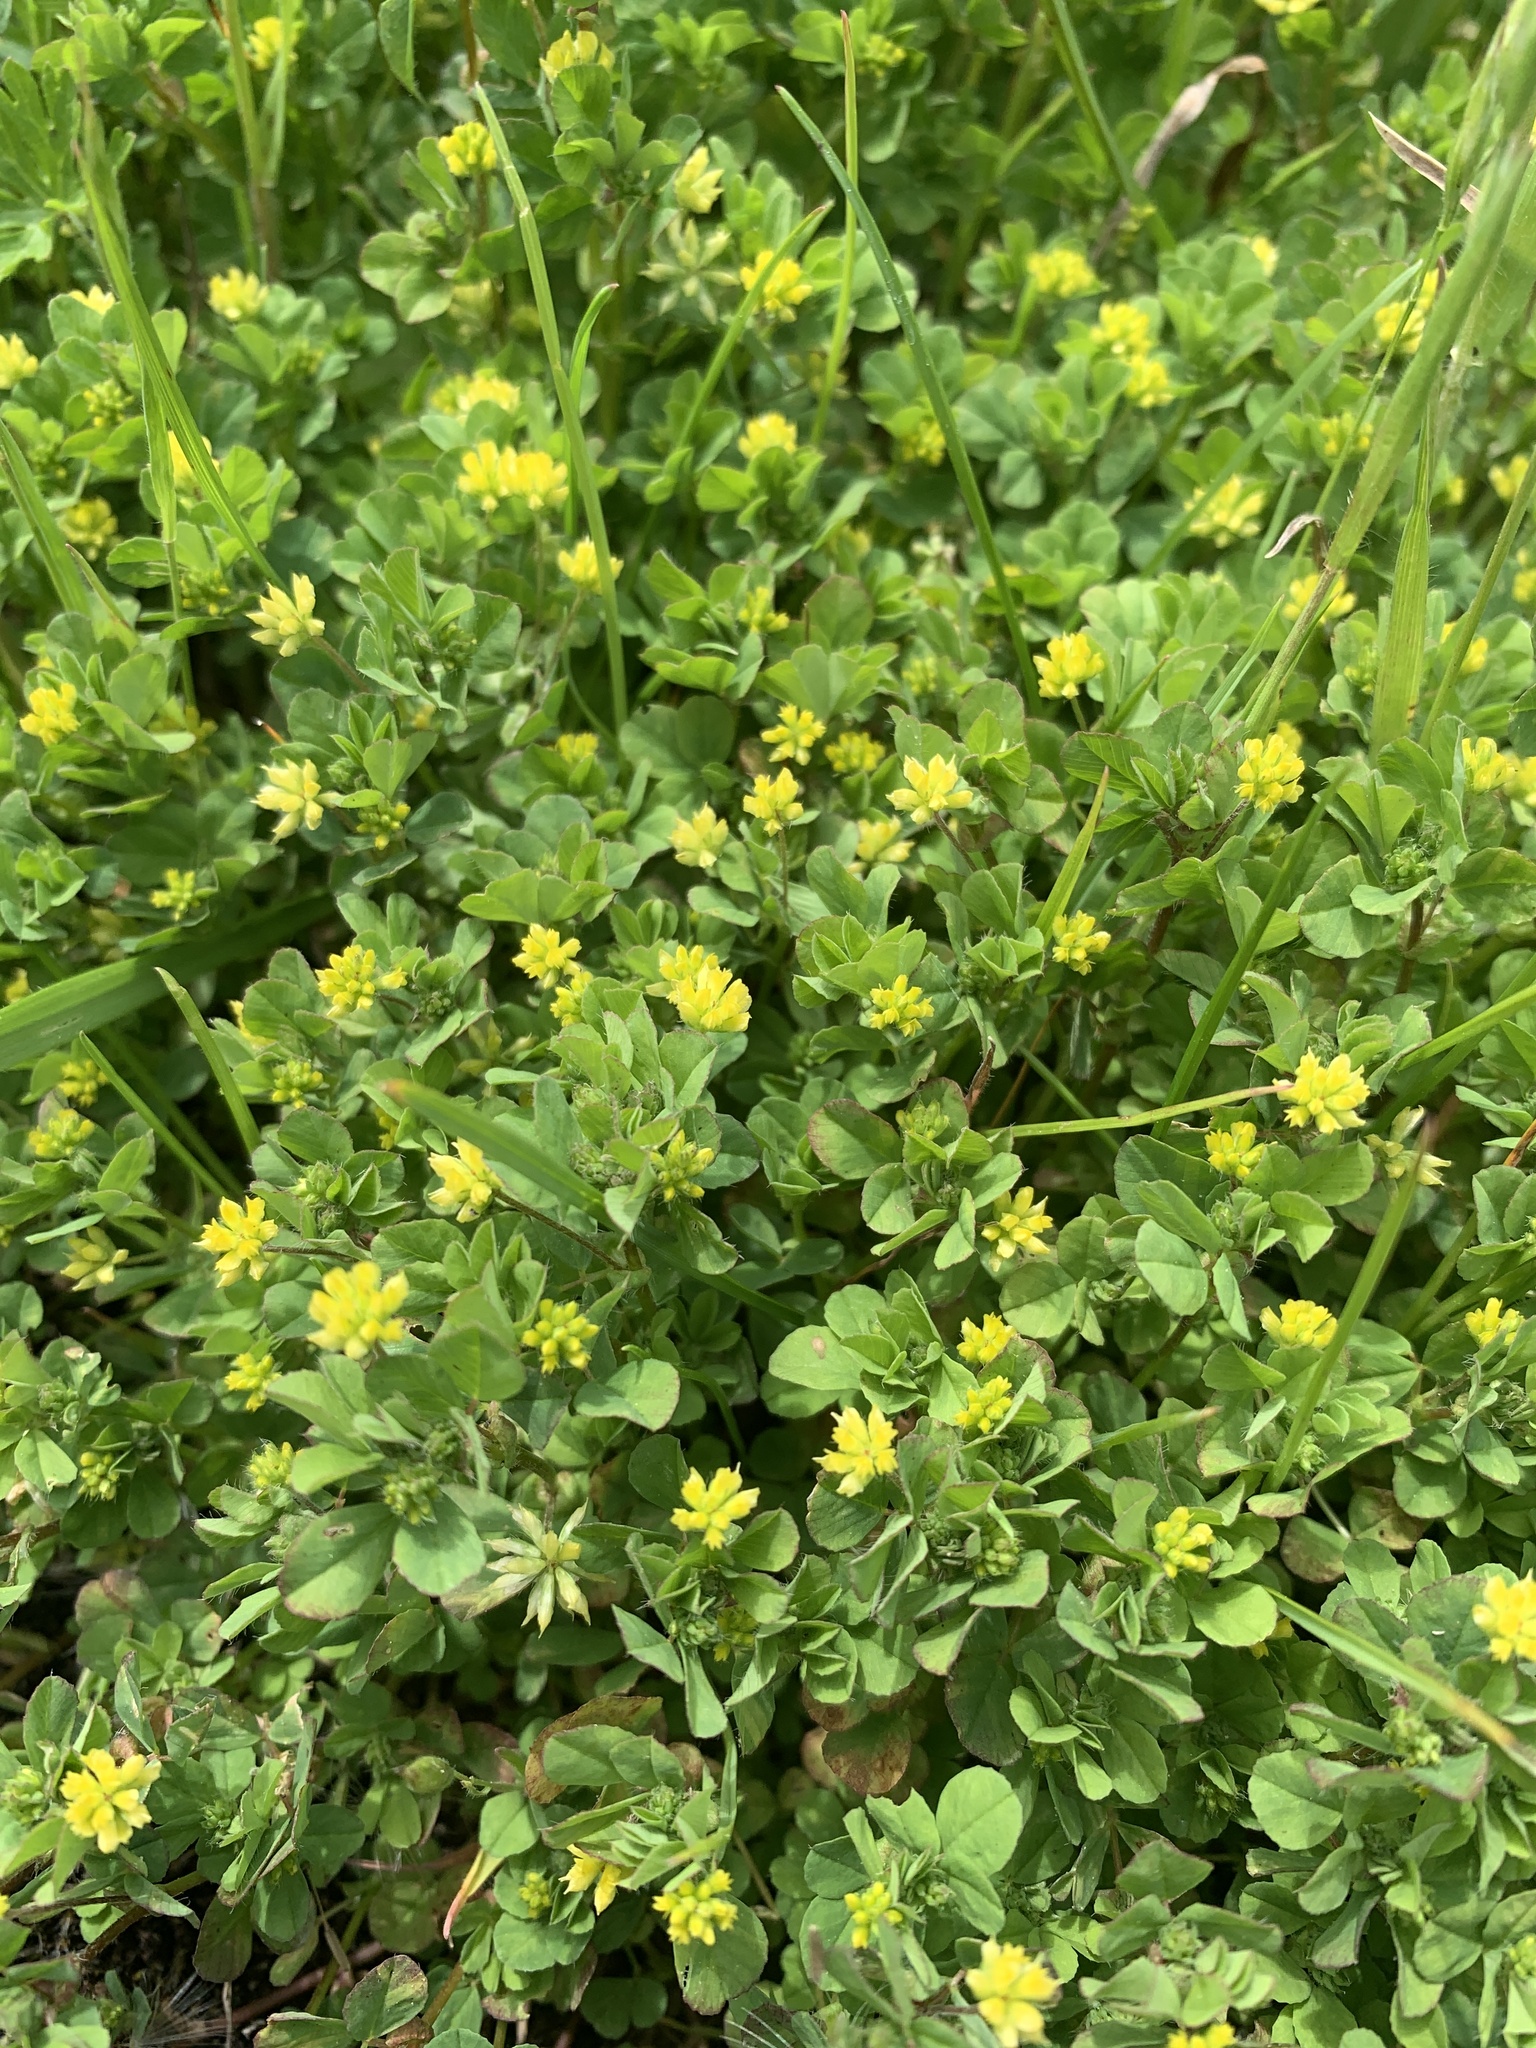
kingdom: Plantae
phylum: Tracheophyta
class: Magnoliopsida
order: Fabales
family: Fabaceae
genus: Trifolium
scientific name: Trifolium dubium
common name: Suckling clover
